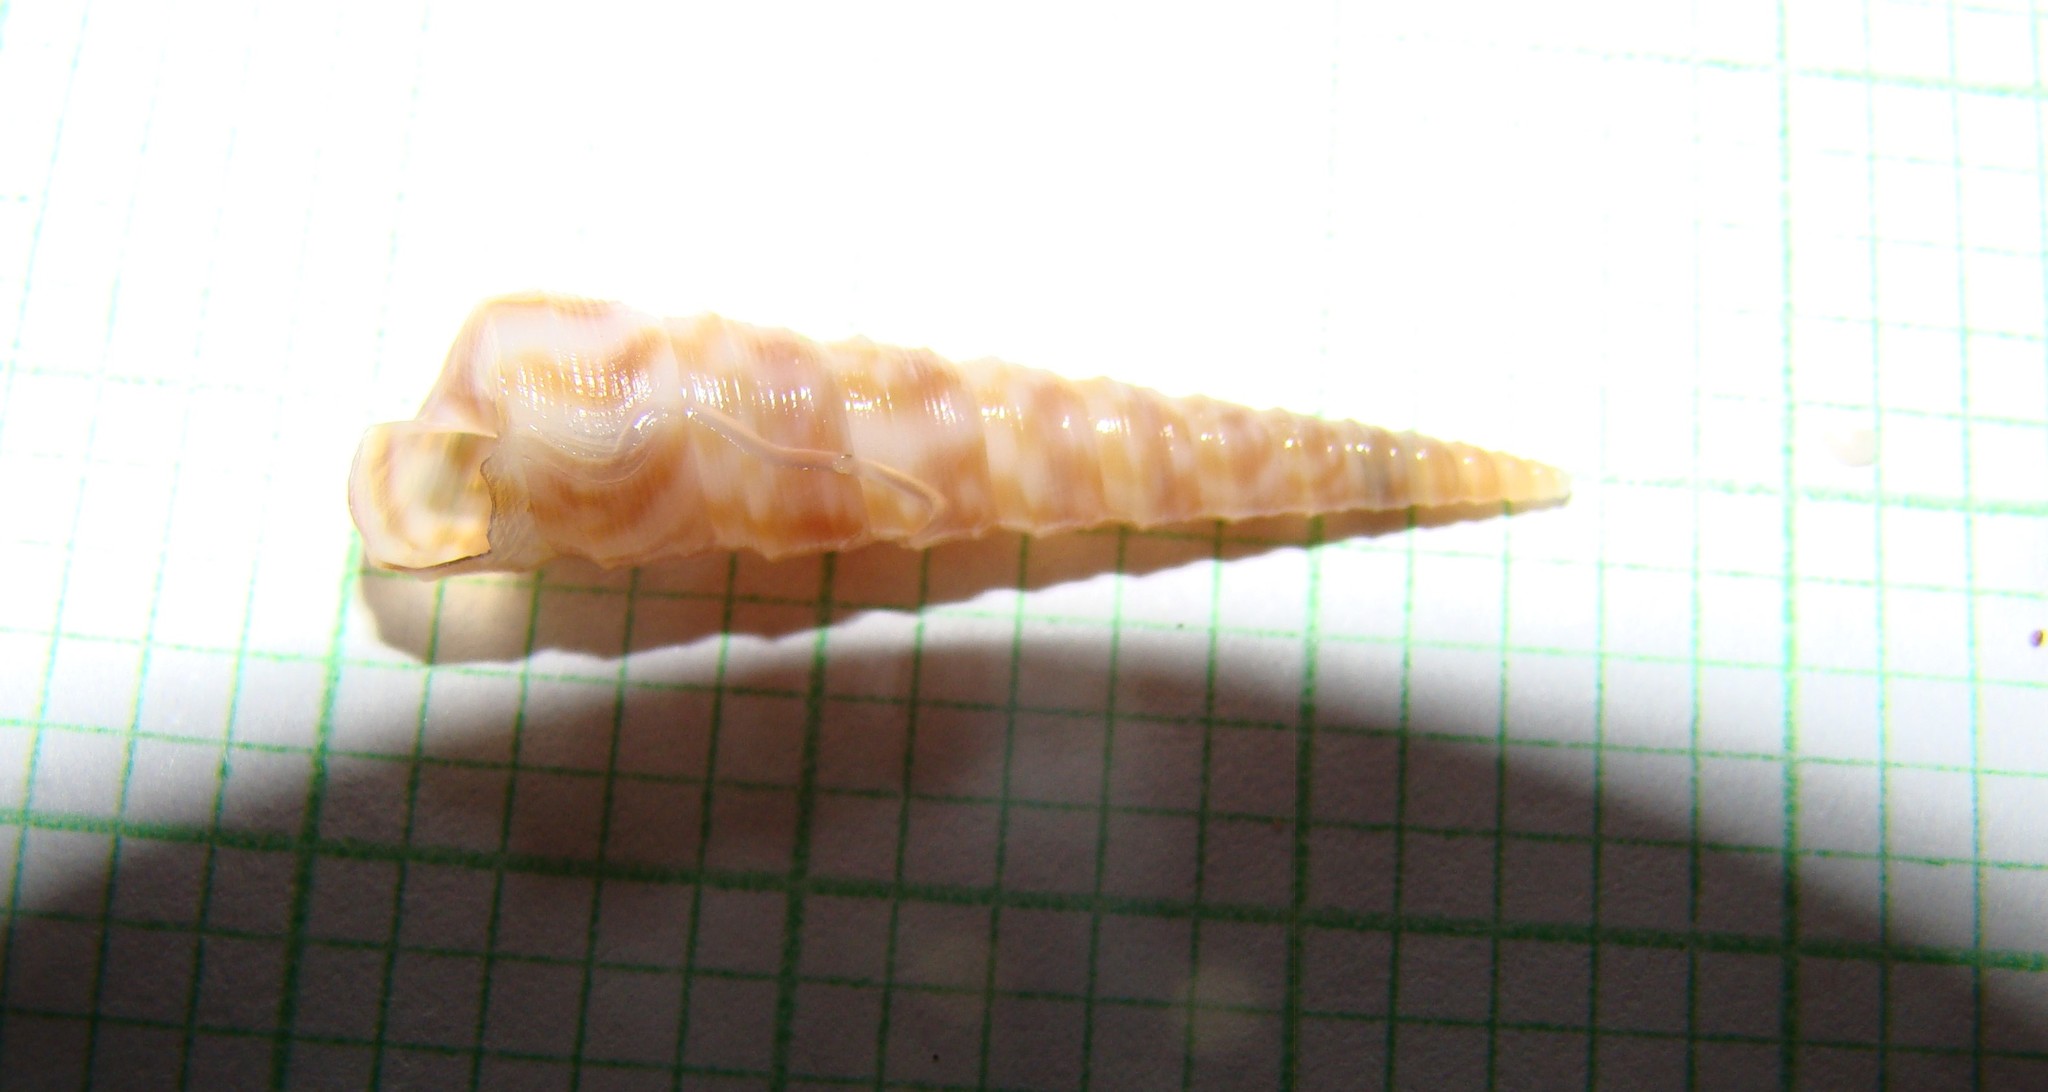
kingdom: Animalia
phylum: Mollusca
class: Gastropoda
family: Turritellidae
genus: Stiracolpus
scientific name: Stiracolpus pagoda
